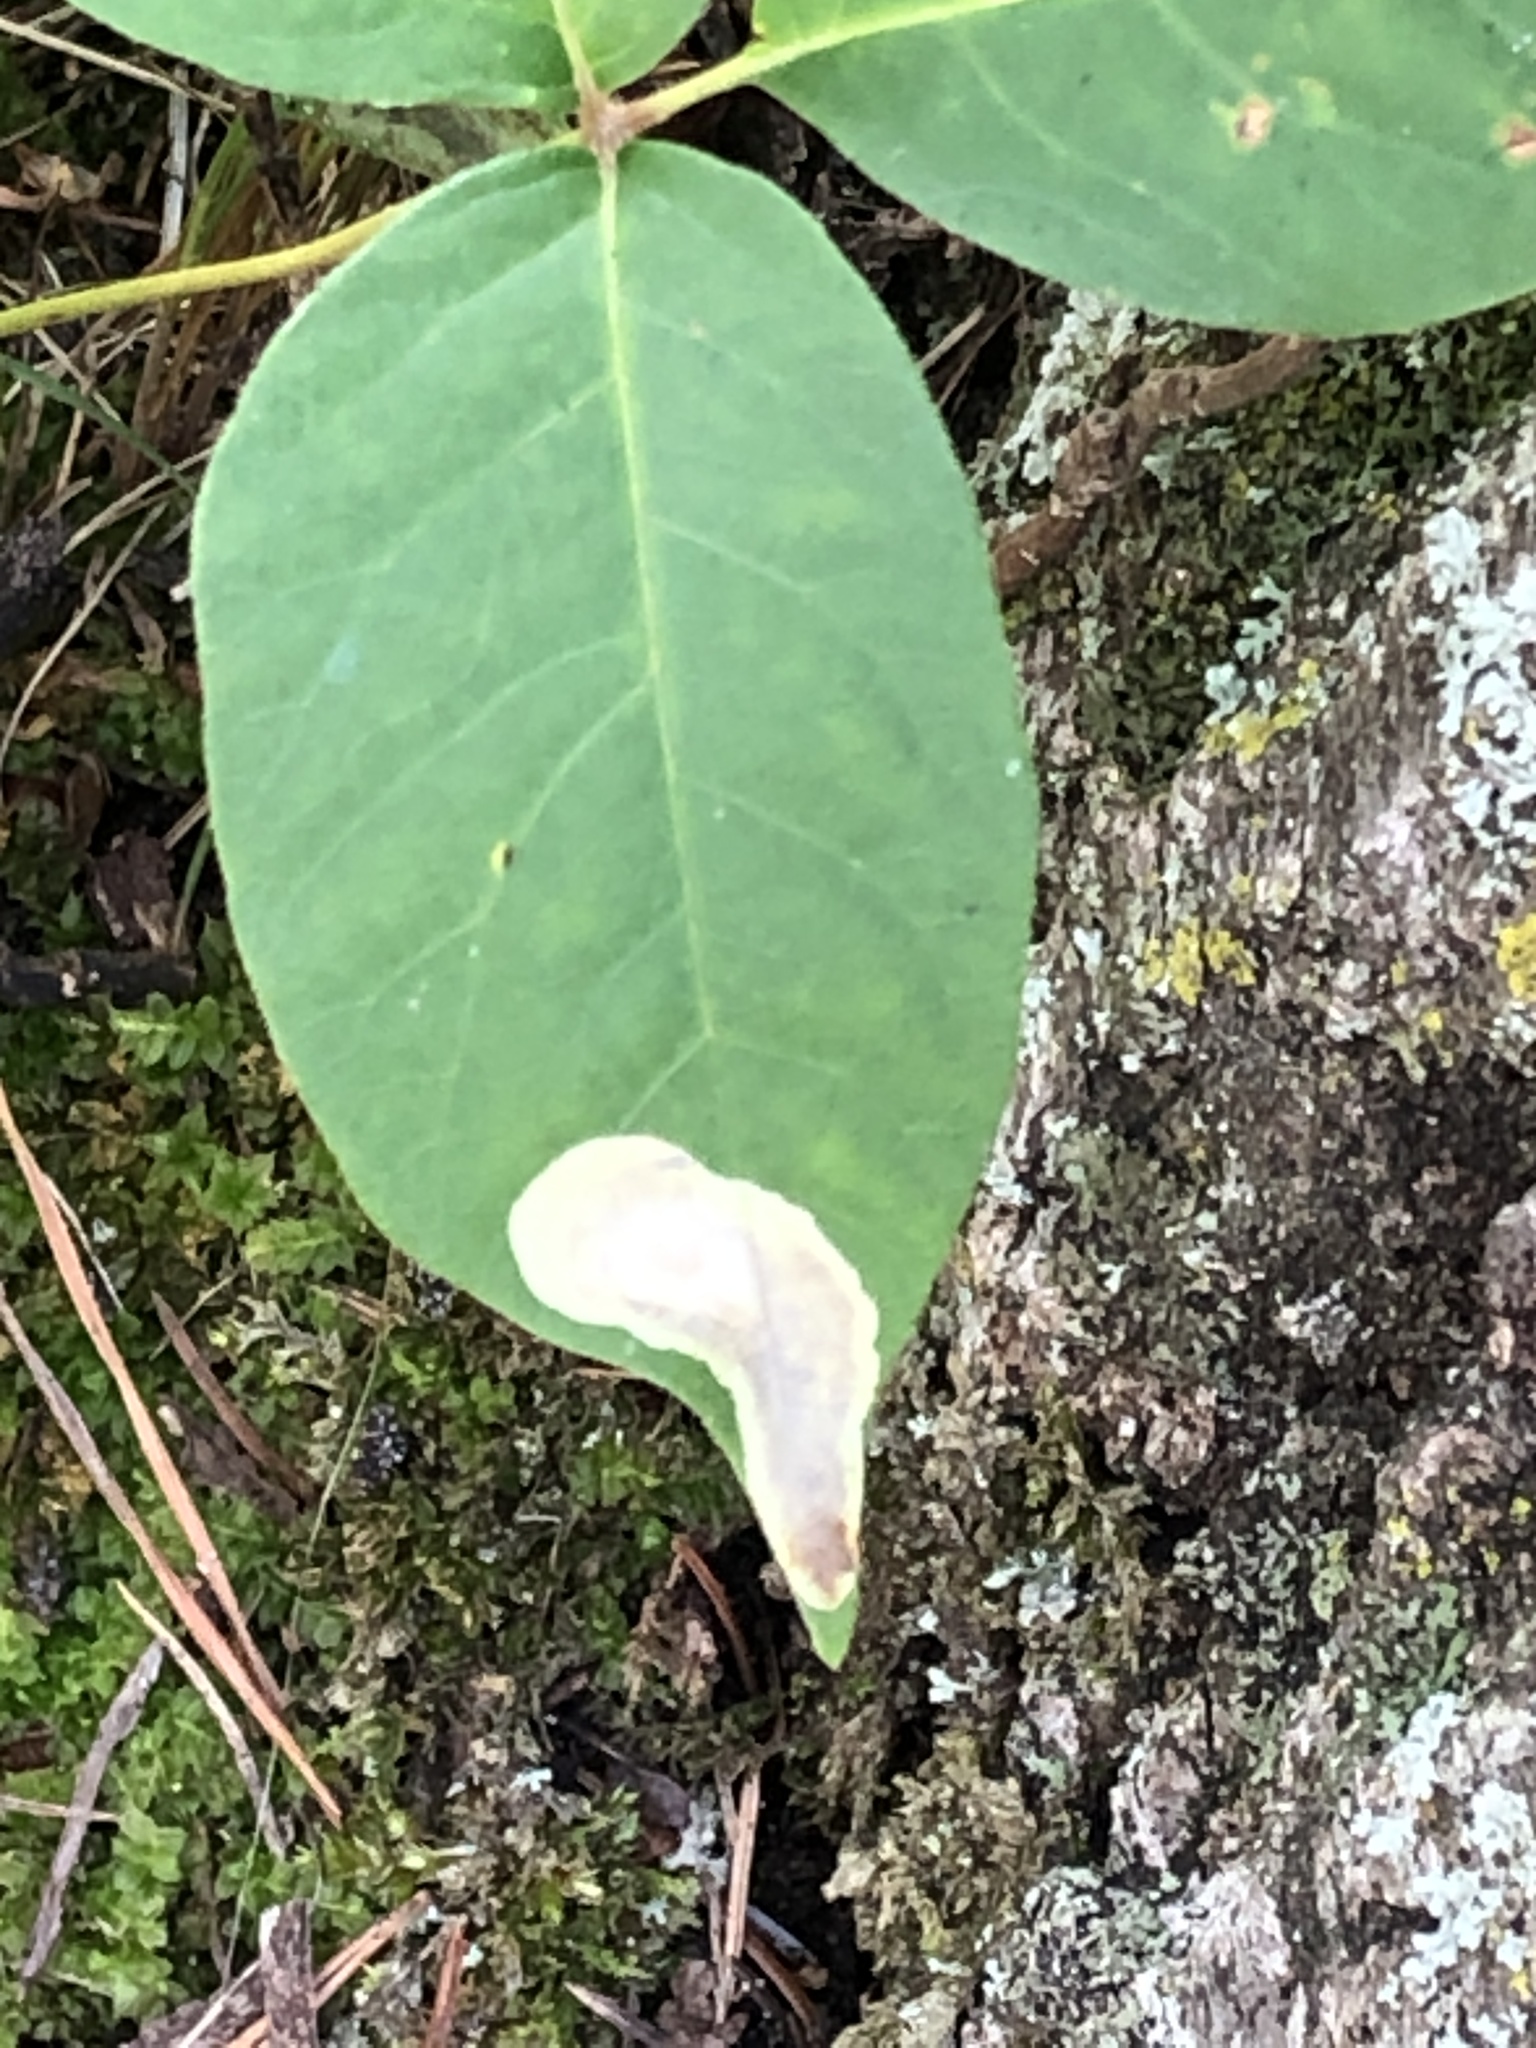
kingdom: Animalia
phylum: Arthropoda
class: Insecta
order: Lepidoptera
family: Gracillariidae
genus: Cameraria
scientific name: Cameraria guttifinitella
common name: Poison ivy leaf-miner moth
